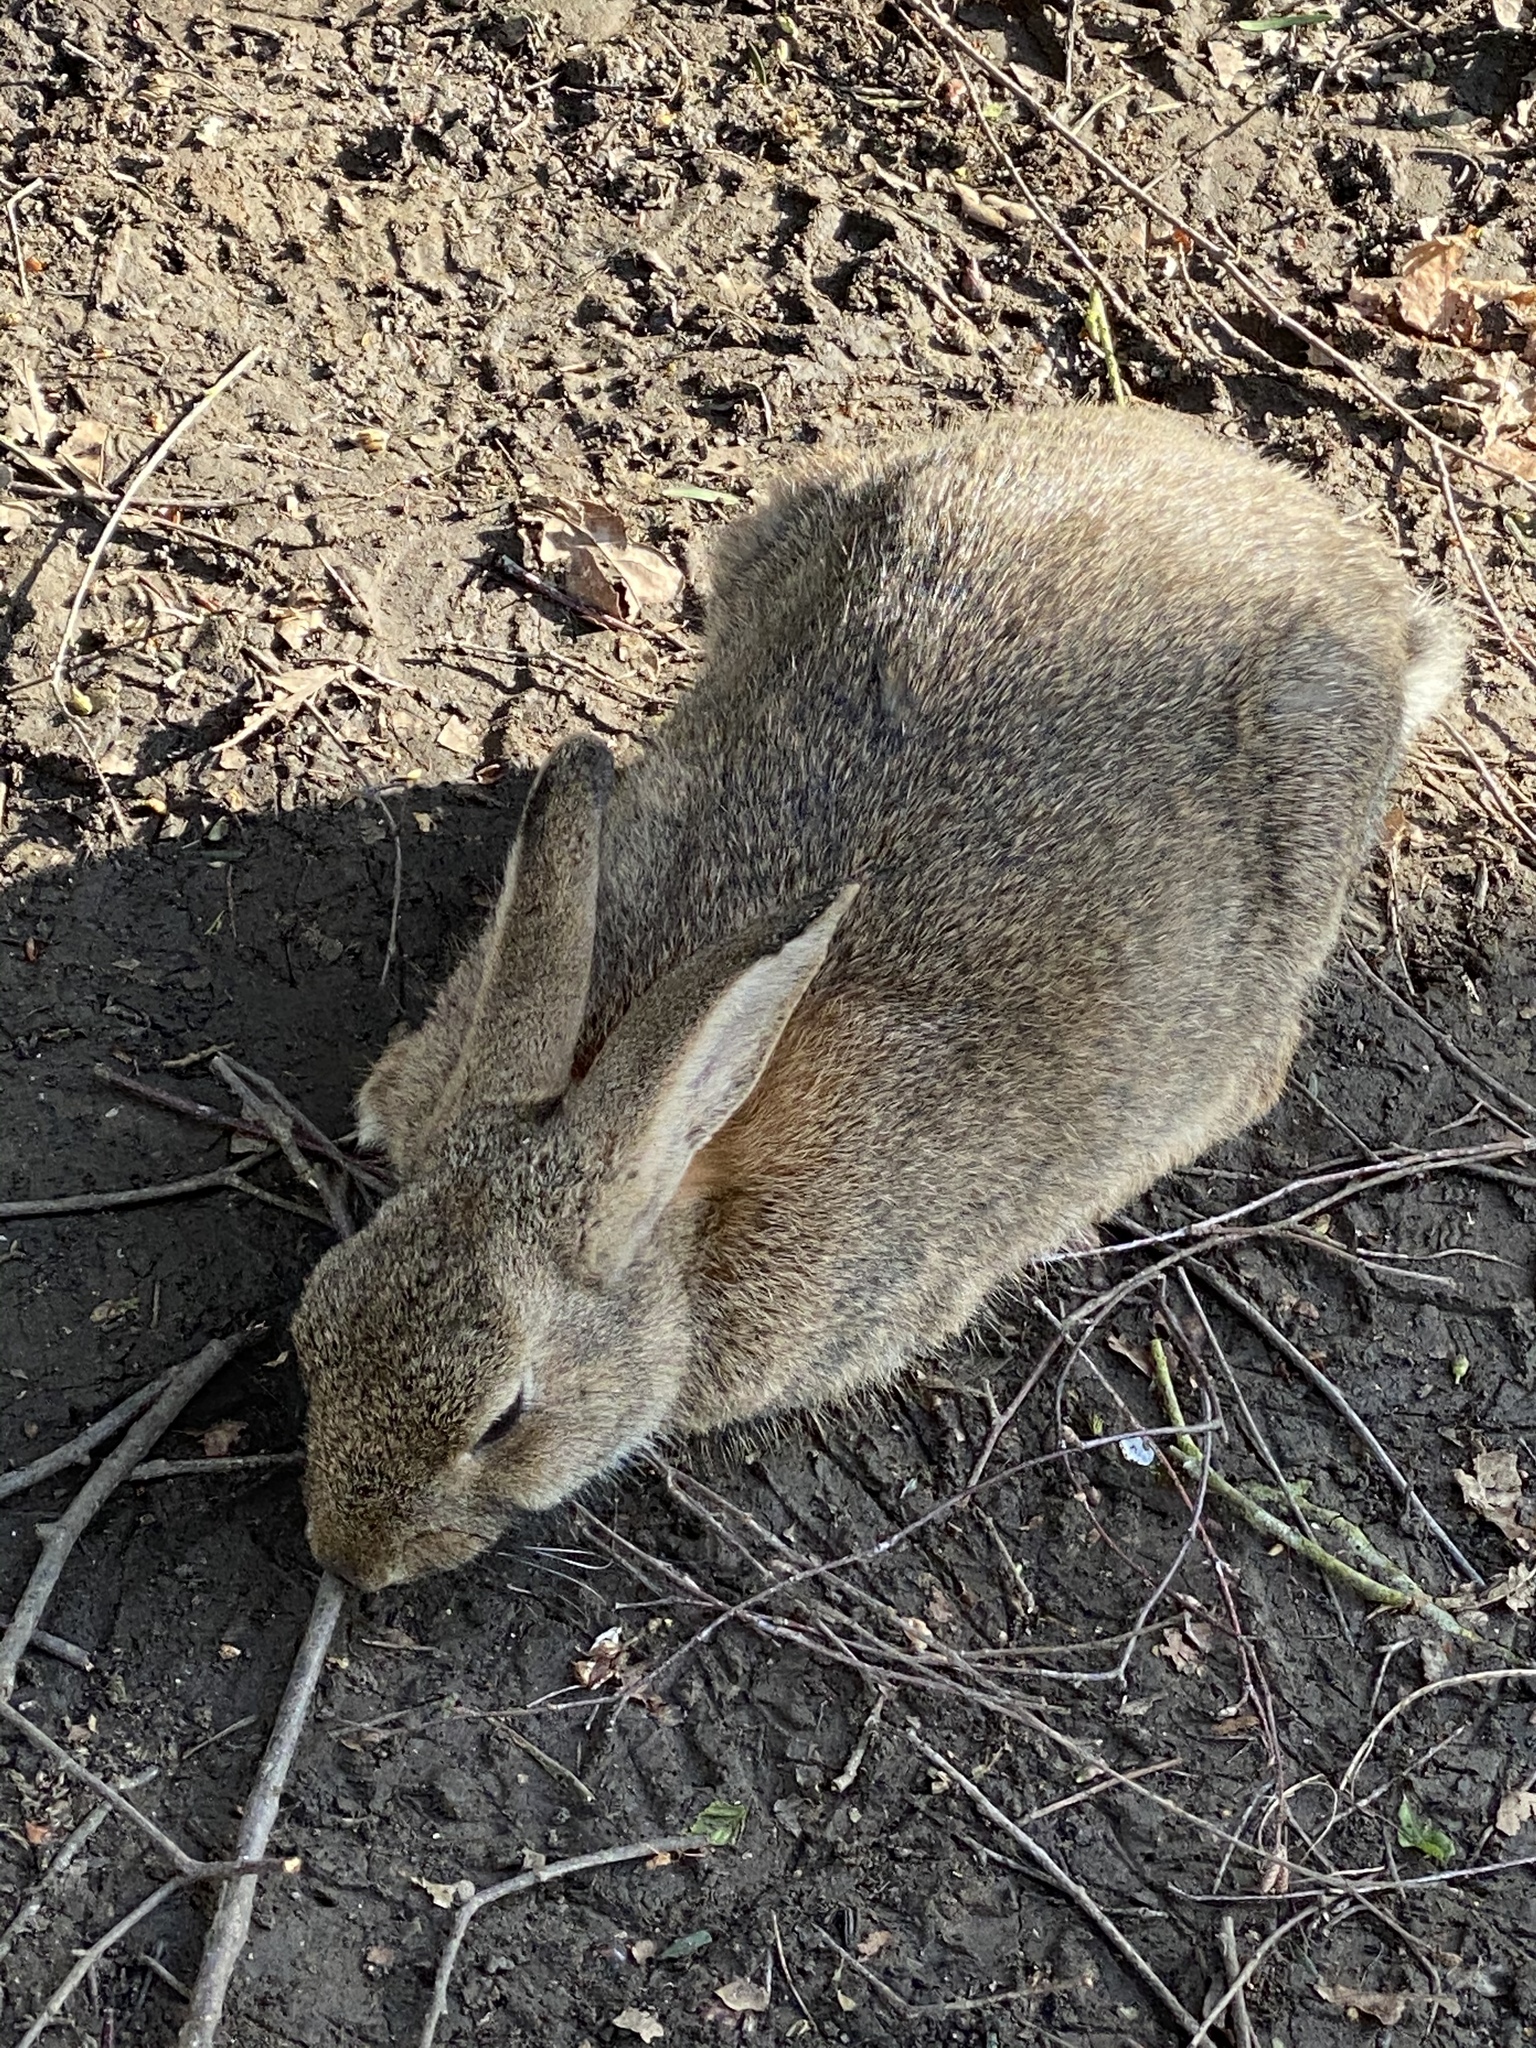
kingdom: Animalia
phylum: Chordata
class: Mammalia
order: Lagomorpha
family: Leporidae
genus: Oryctolagus
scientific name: Oryctolagus cuniculus
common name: European rabbit
